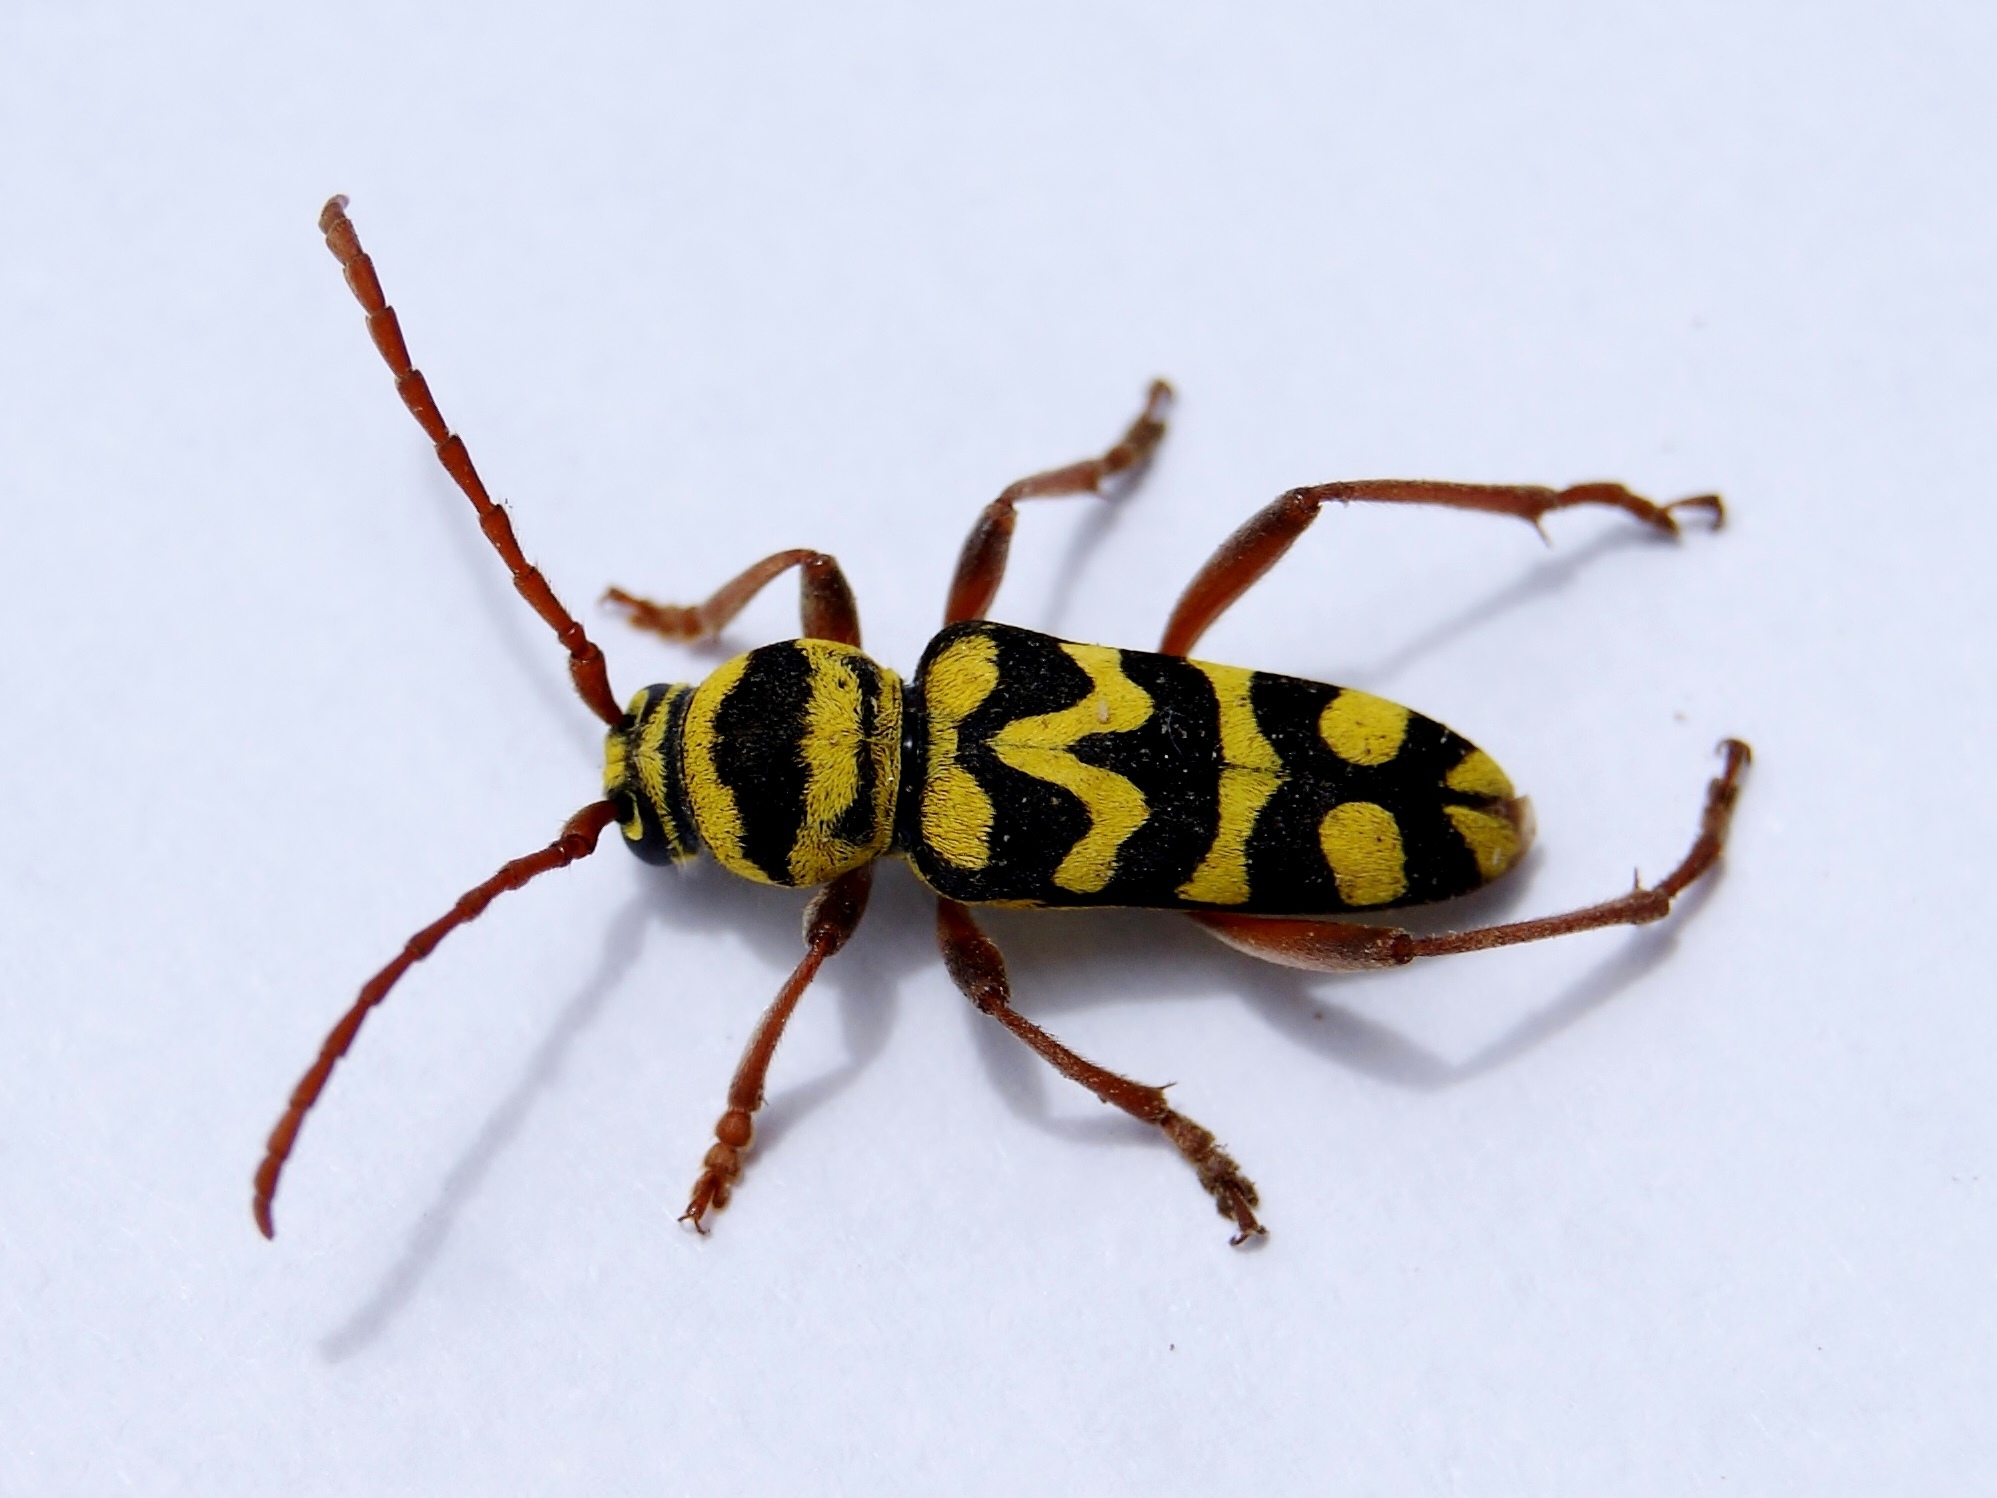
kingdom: Animalia
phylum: Arthropoda
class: Insecta
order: Coleoptera
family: Cerambycidae
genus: Neoplagionotus
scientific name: Neoplagionotus bobelayei
